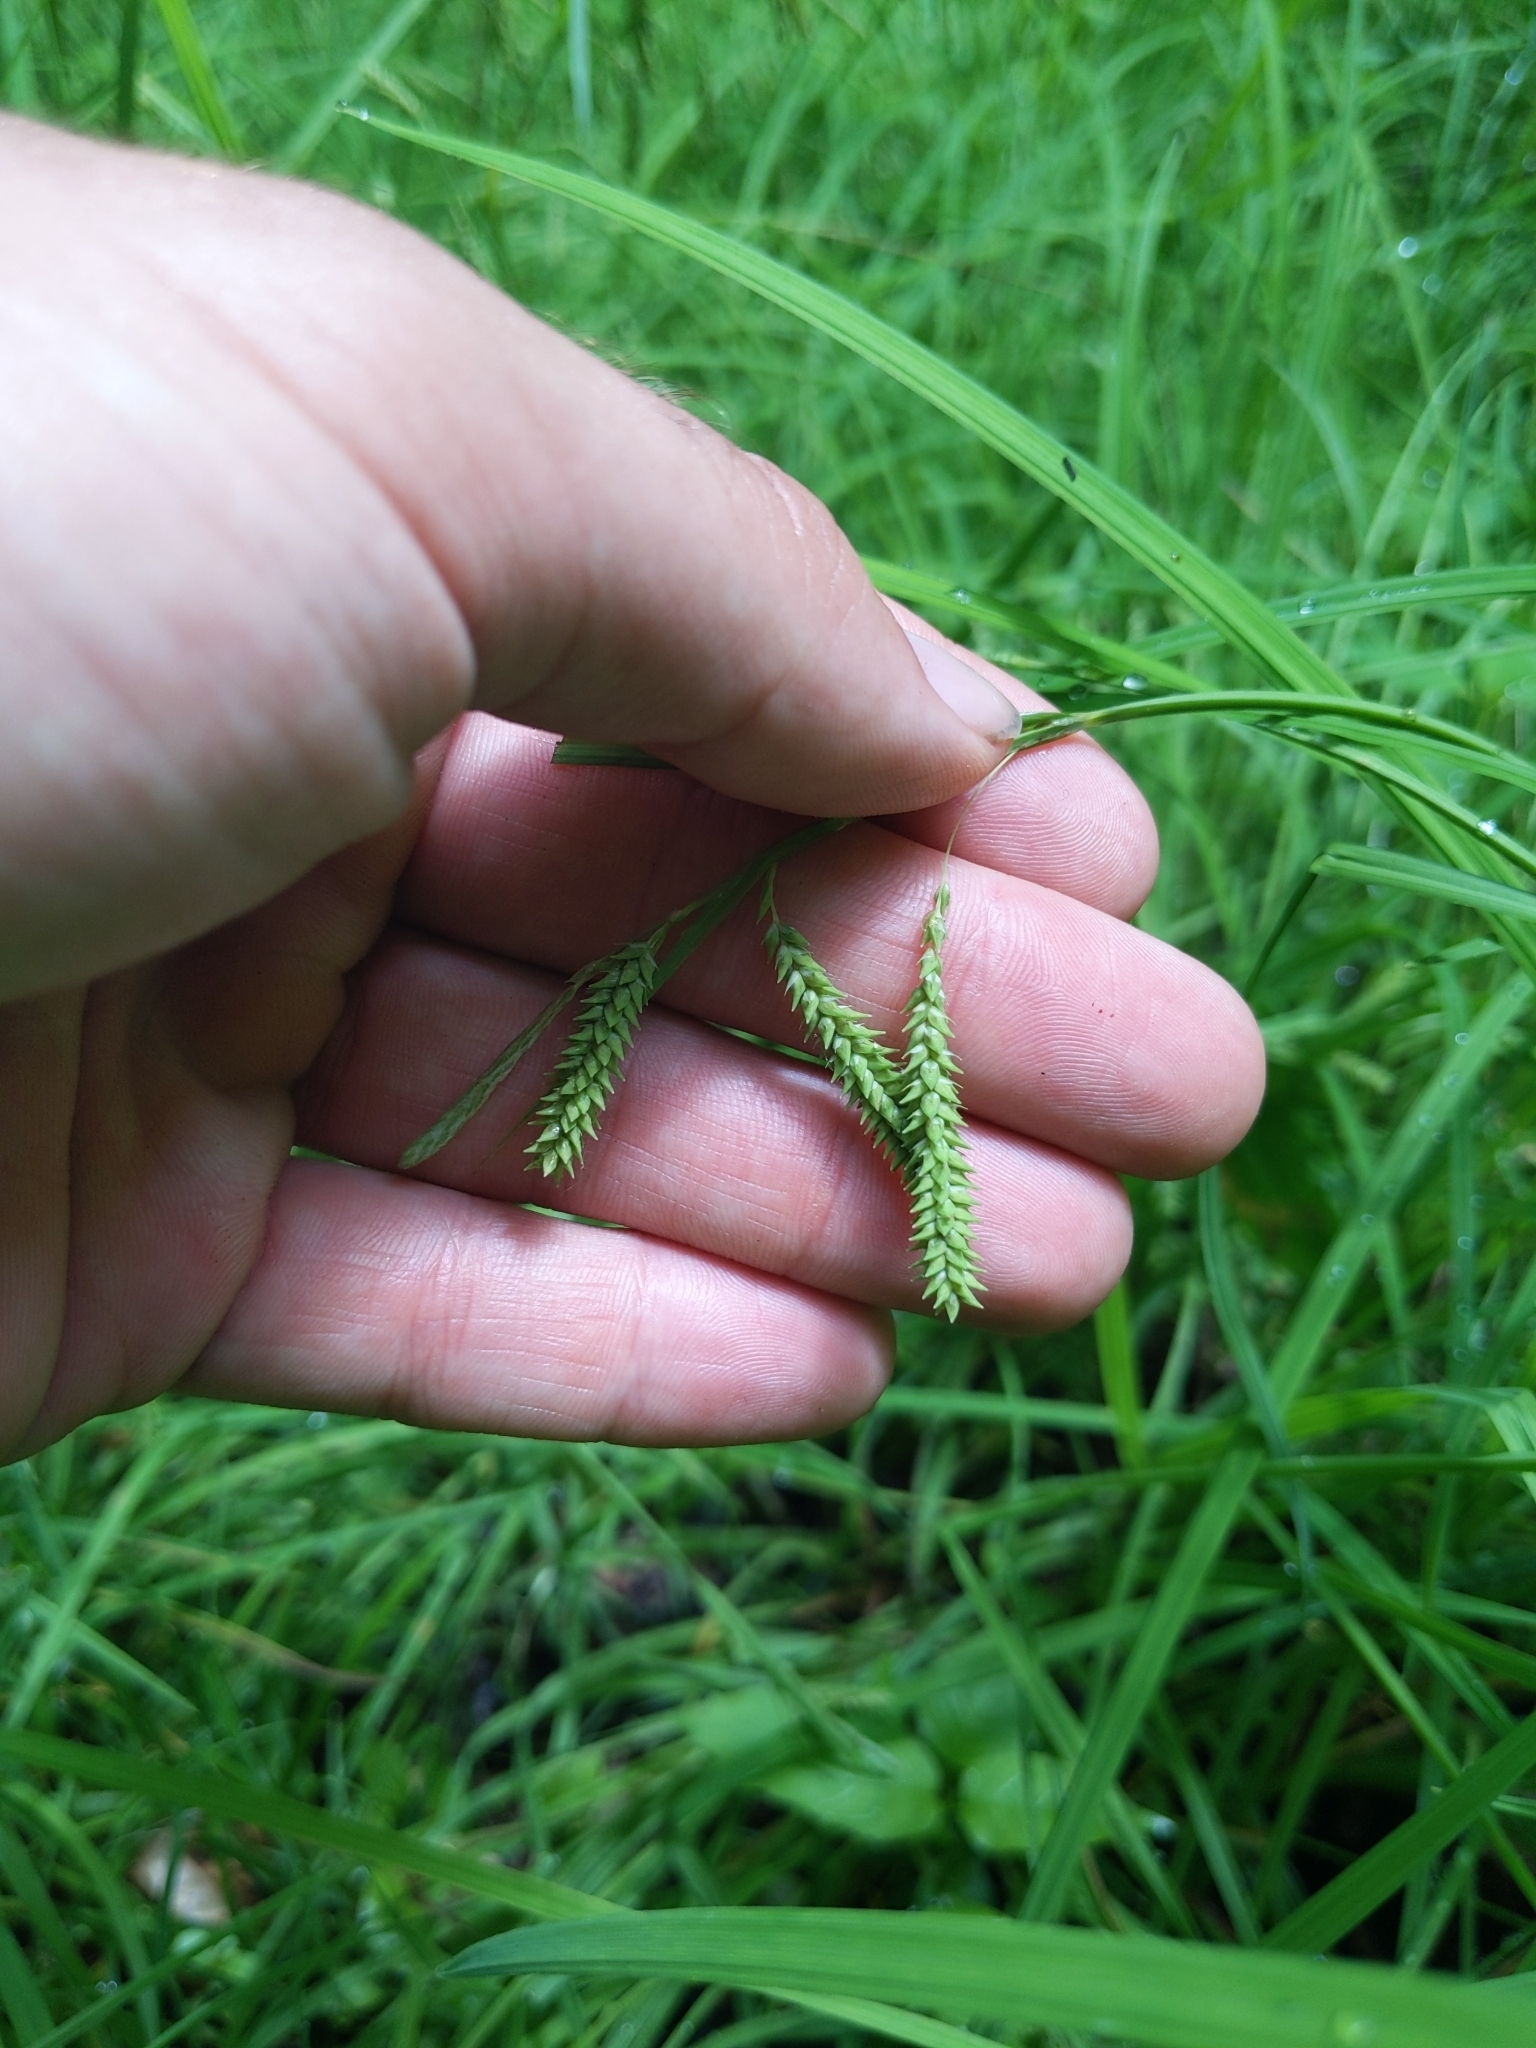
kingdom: Plantae
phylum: Tracheophyta
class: Liliopsida
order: Poales
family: Cyperaceae
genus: Carex
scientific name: Carex prasina
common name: Drooping sedge
